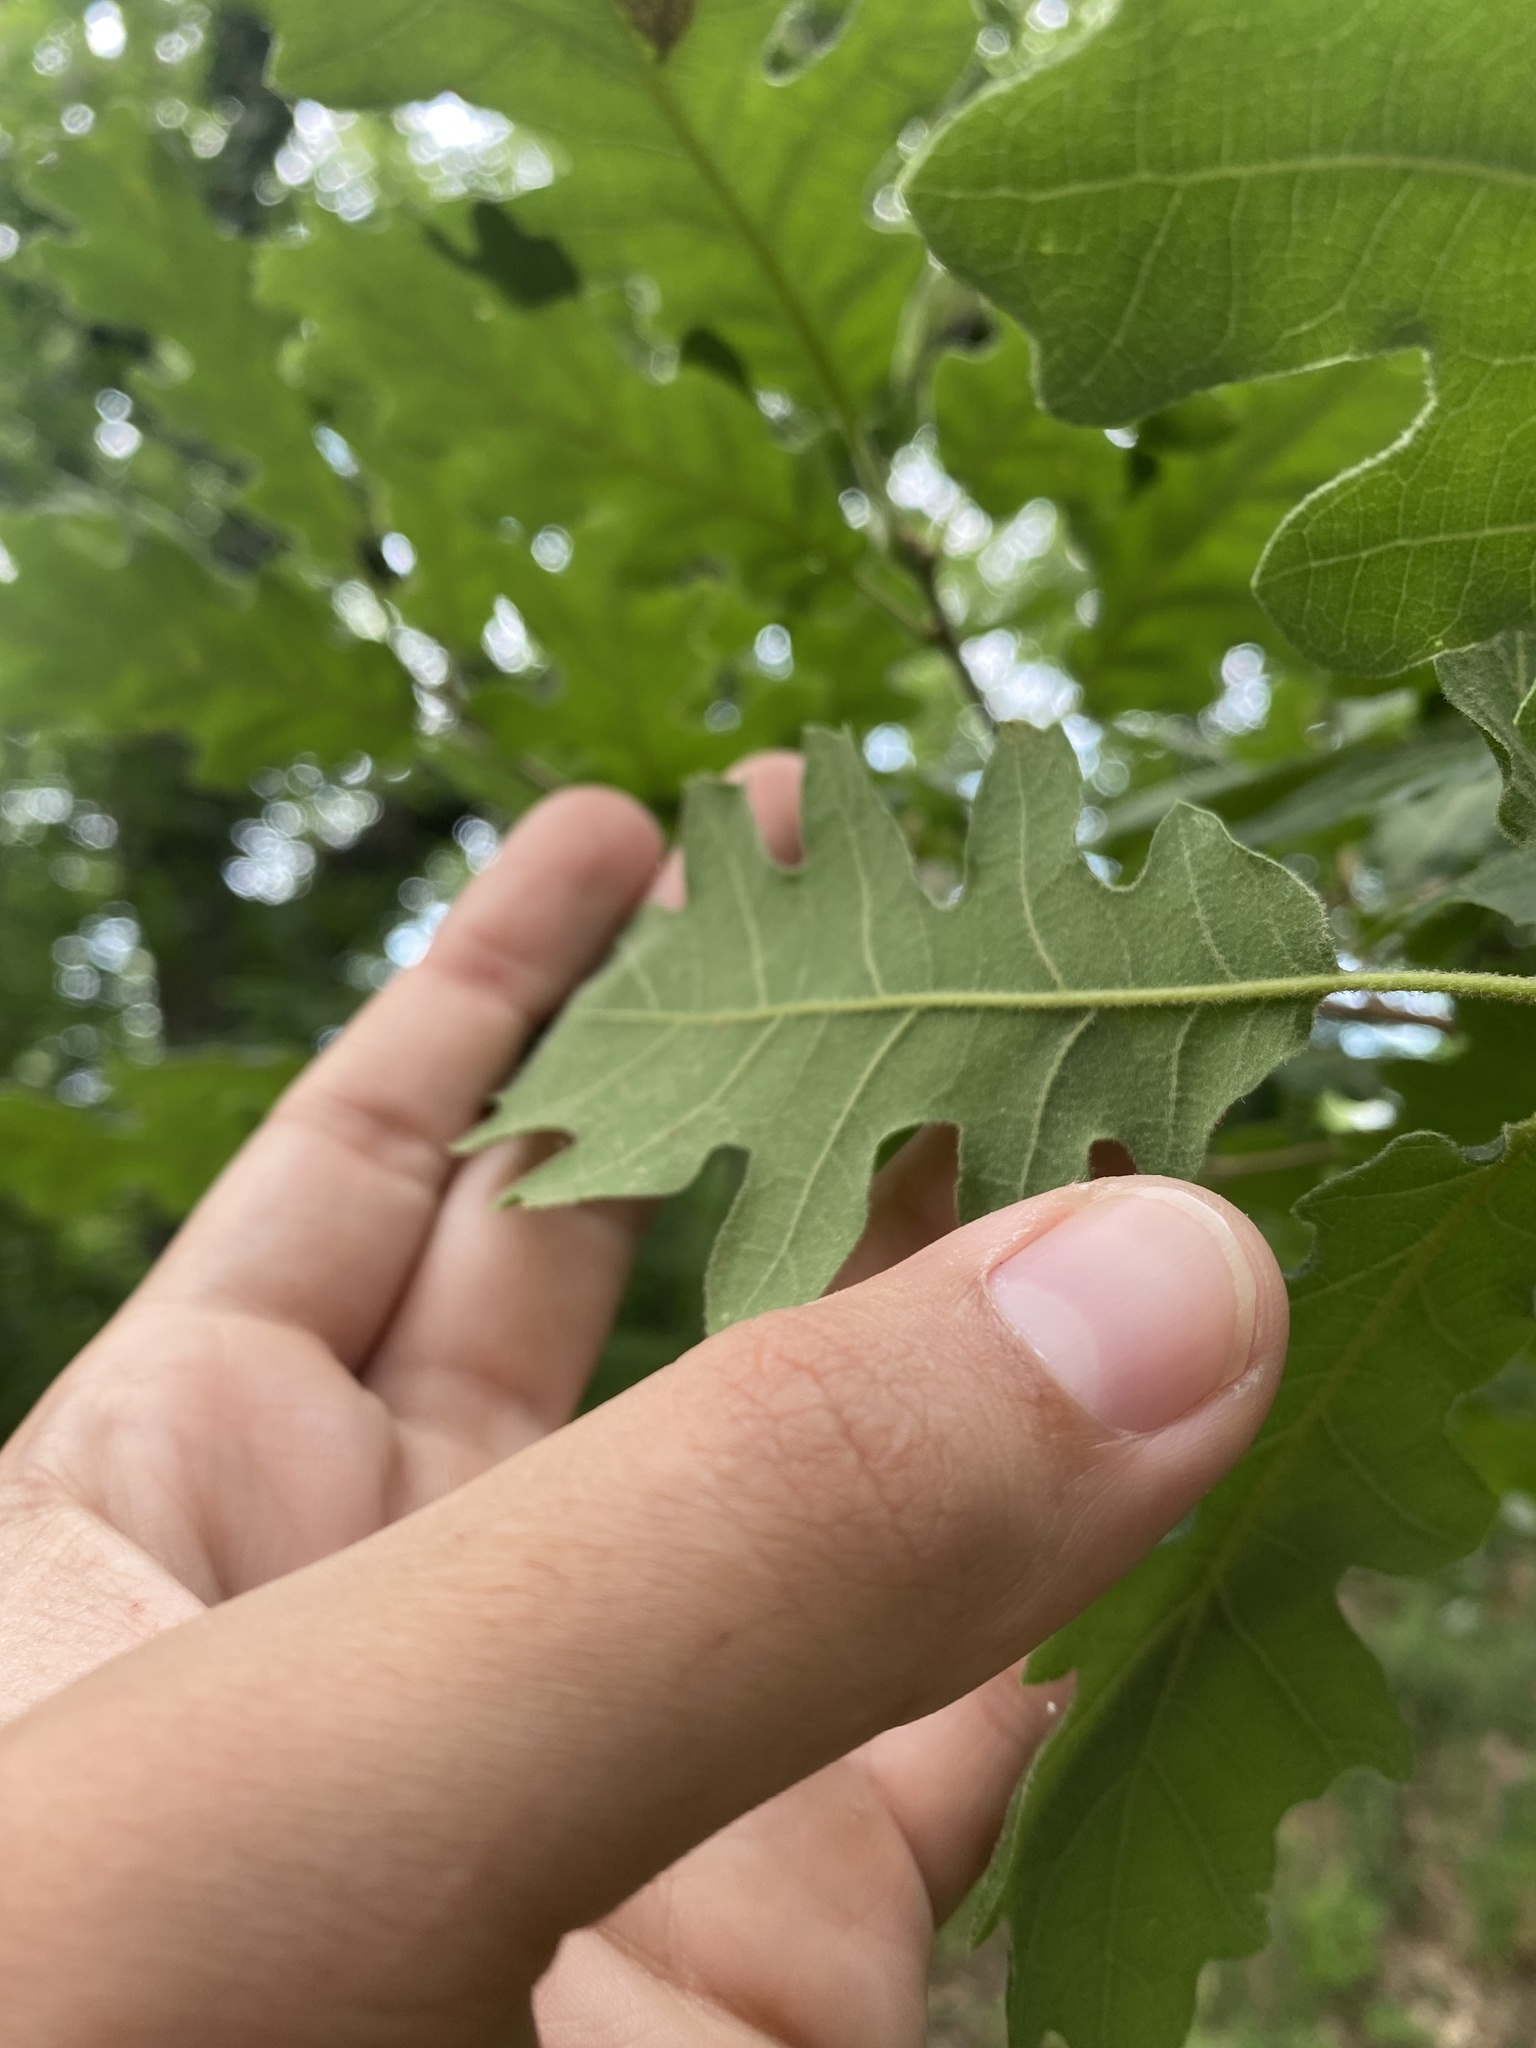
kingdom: Plantae
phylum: Tracheophyta
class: Magnoliopsida
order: Fagales
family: Fagaceae
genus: Quercus
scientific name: Quercus pubescens
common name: Downy oak
